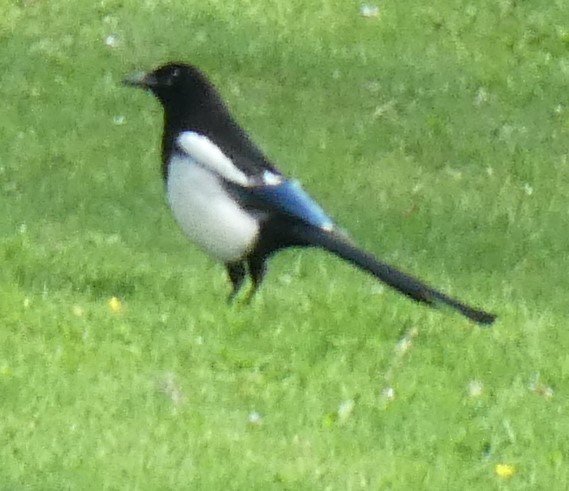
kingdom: Animalia
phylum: Chordata
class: Aves
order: Passeriformes
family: Corvidae
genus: Pica
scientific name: Pica pica
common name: Eurasian magpie
